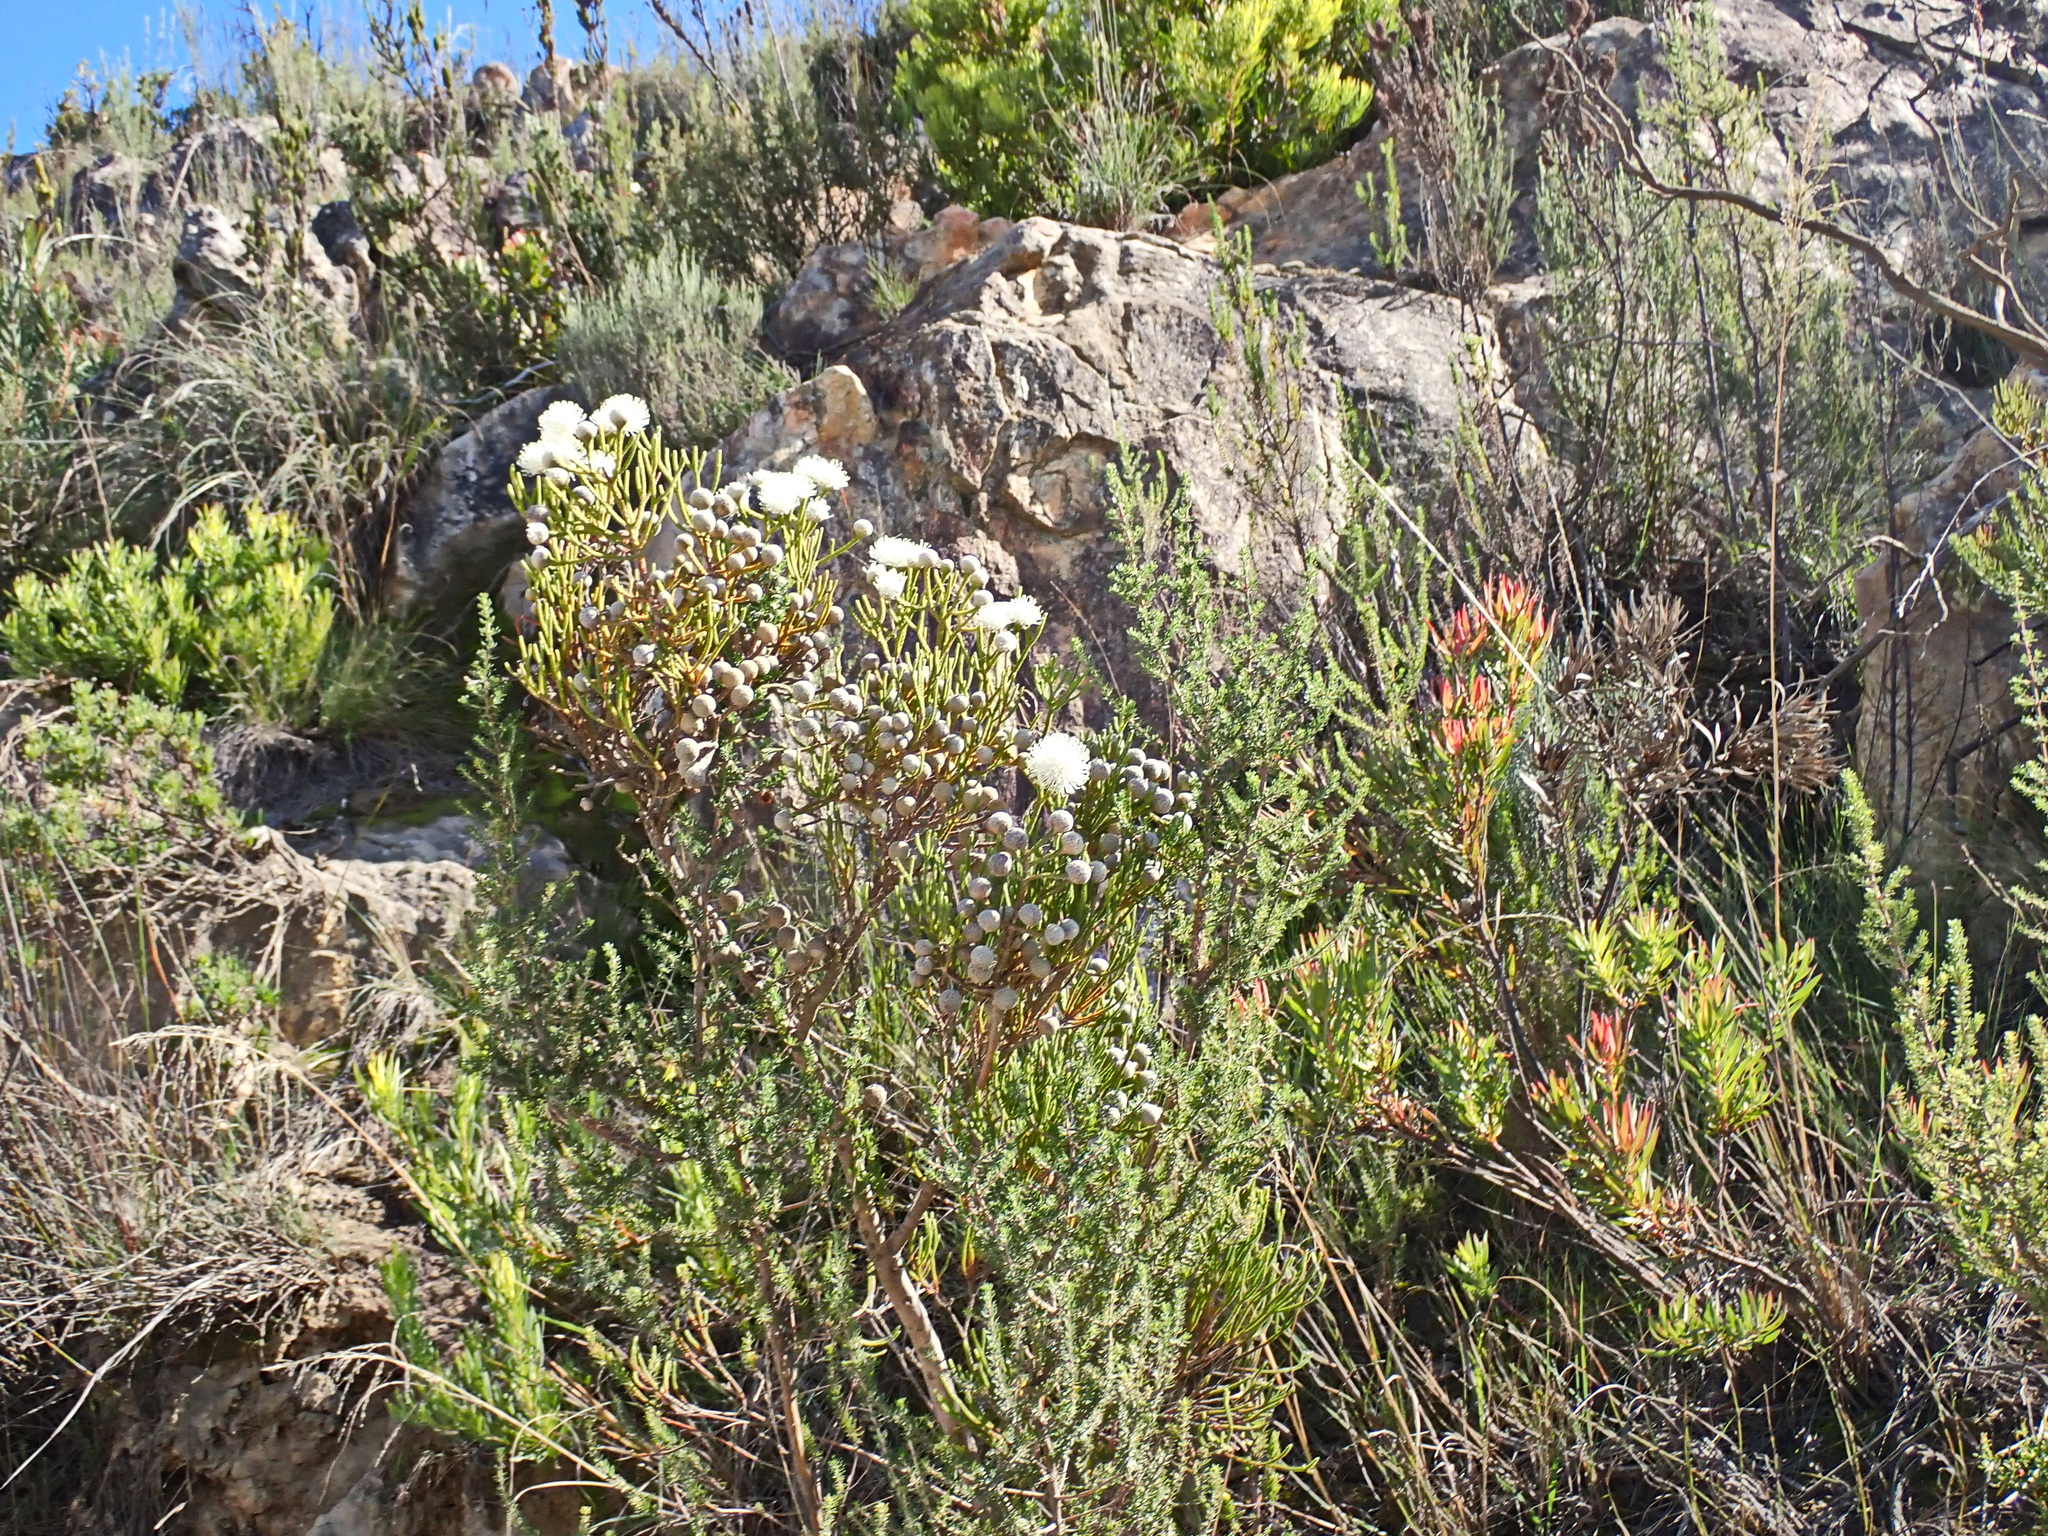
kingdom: Plantae
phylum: Tracheophyta
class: Magnoliopsida
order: Bruniales
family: Bruniaceae
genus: Brunia
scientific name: Brunia noduliflora
